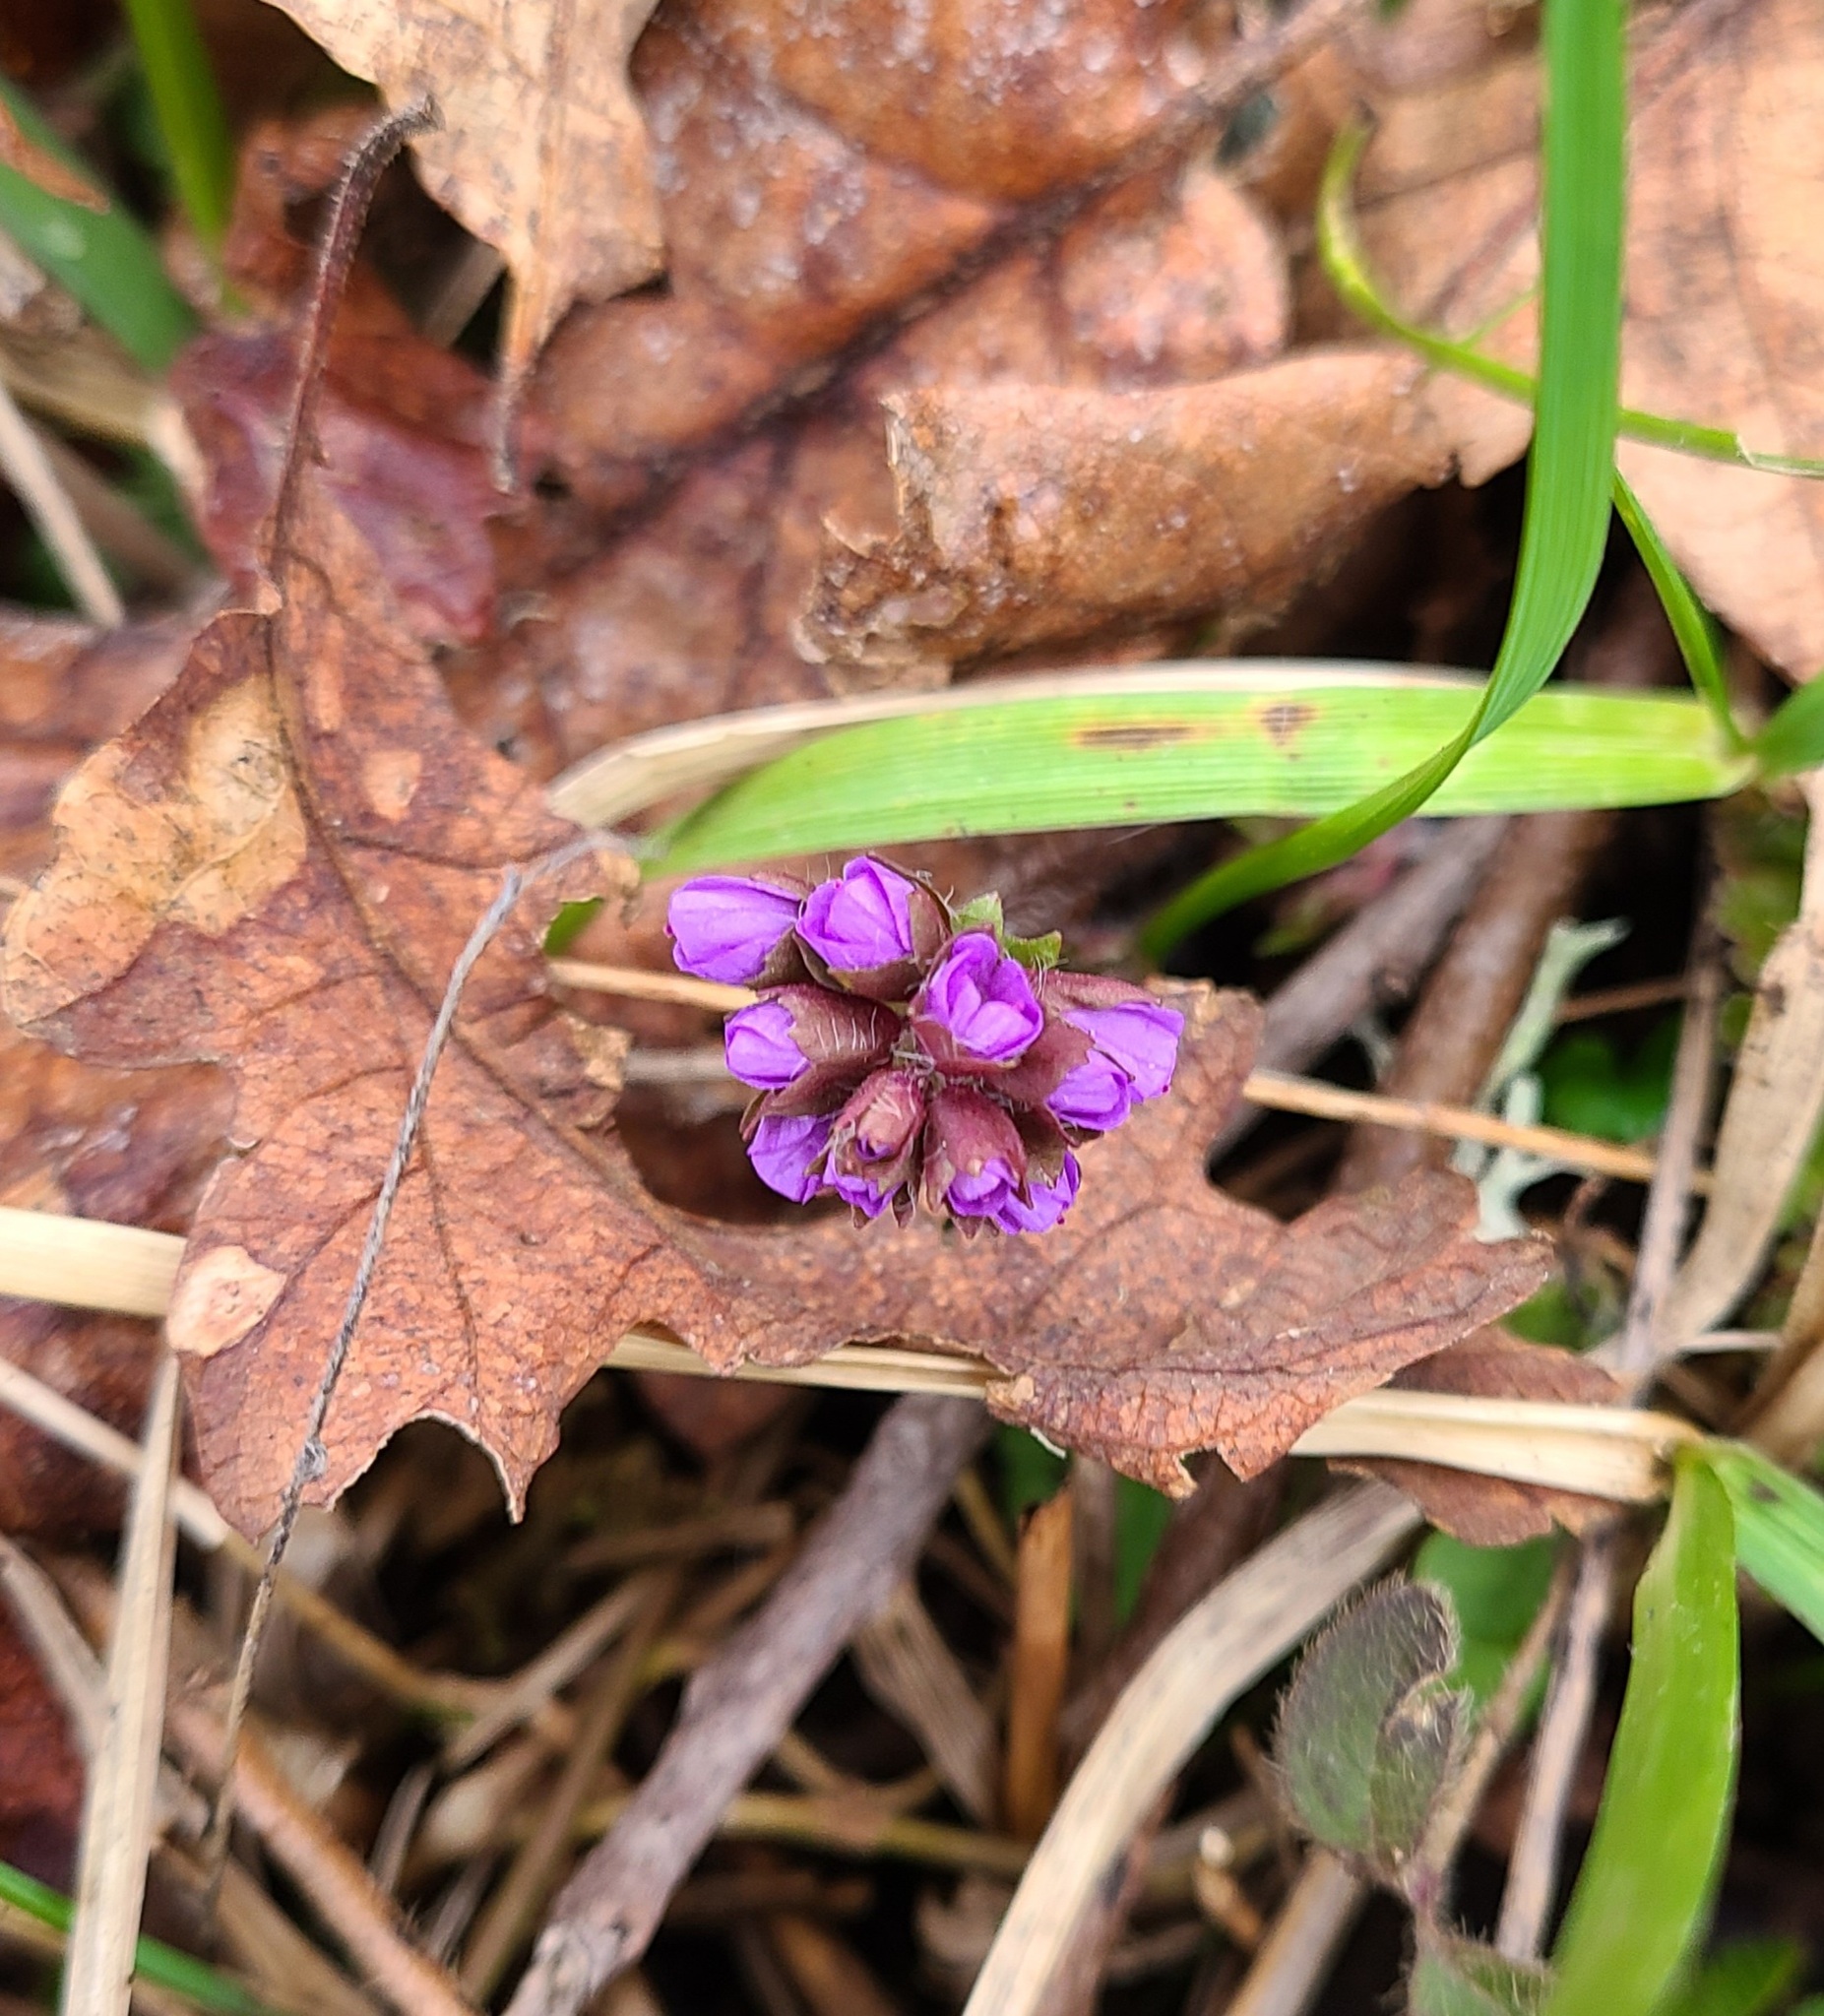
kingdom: Plantae
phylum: Tracheophyta
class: Magnoliopsida
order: Lamiales
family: Plantaginaceae
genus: Synthyris
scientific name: Synthyris reniformis
